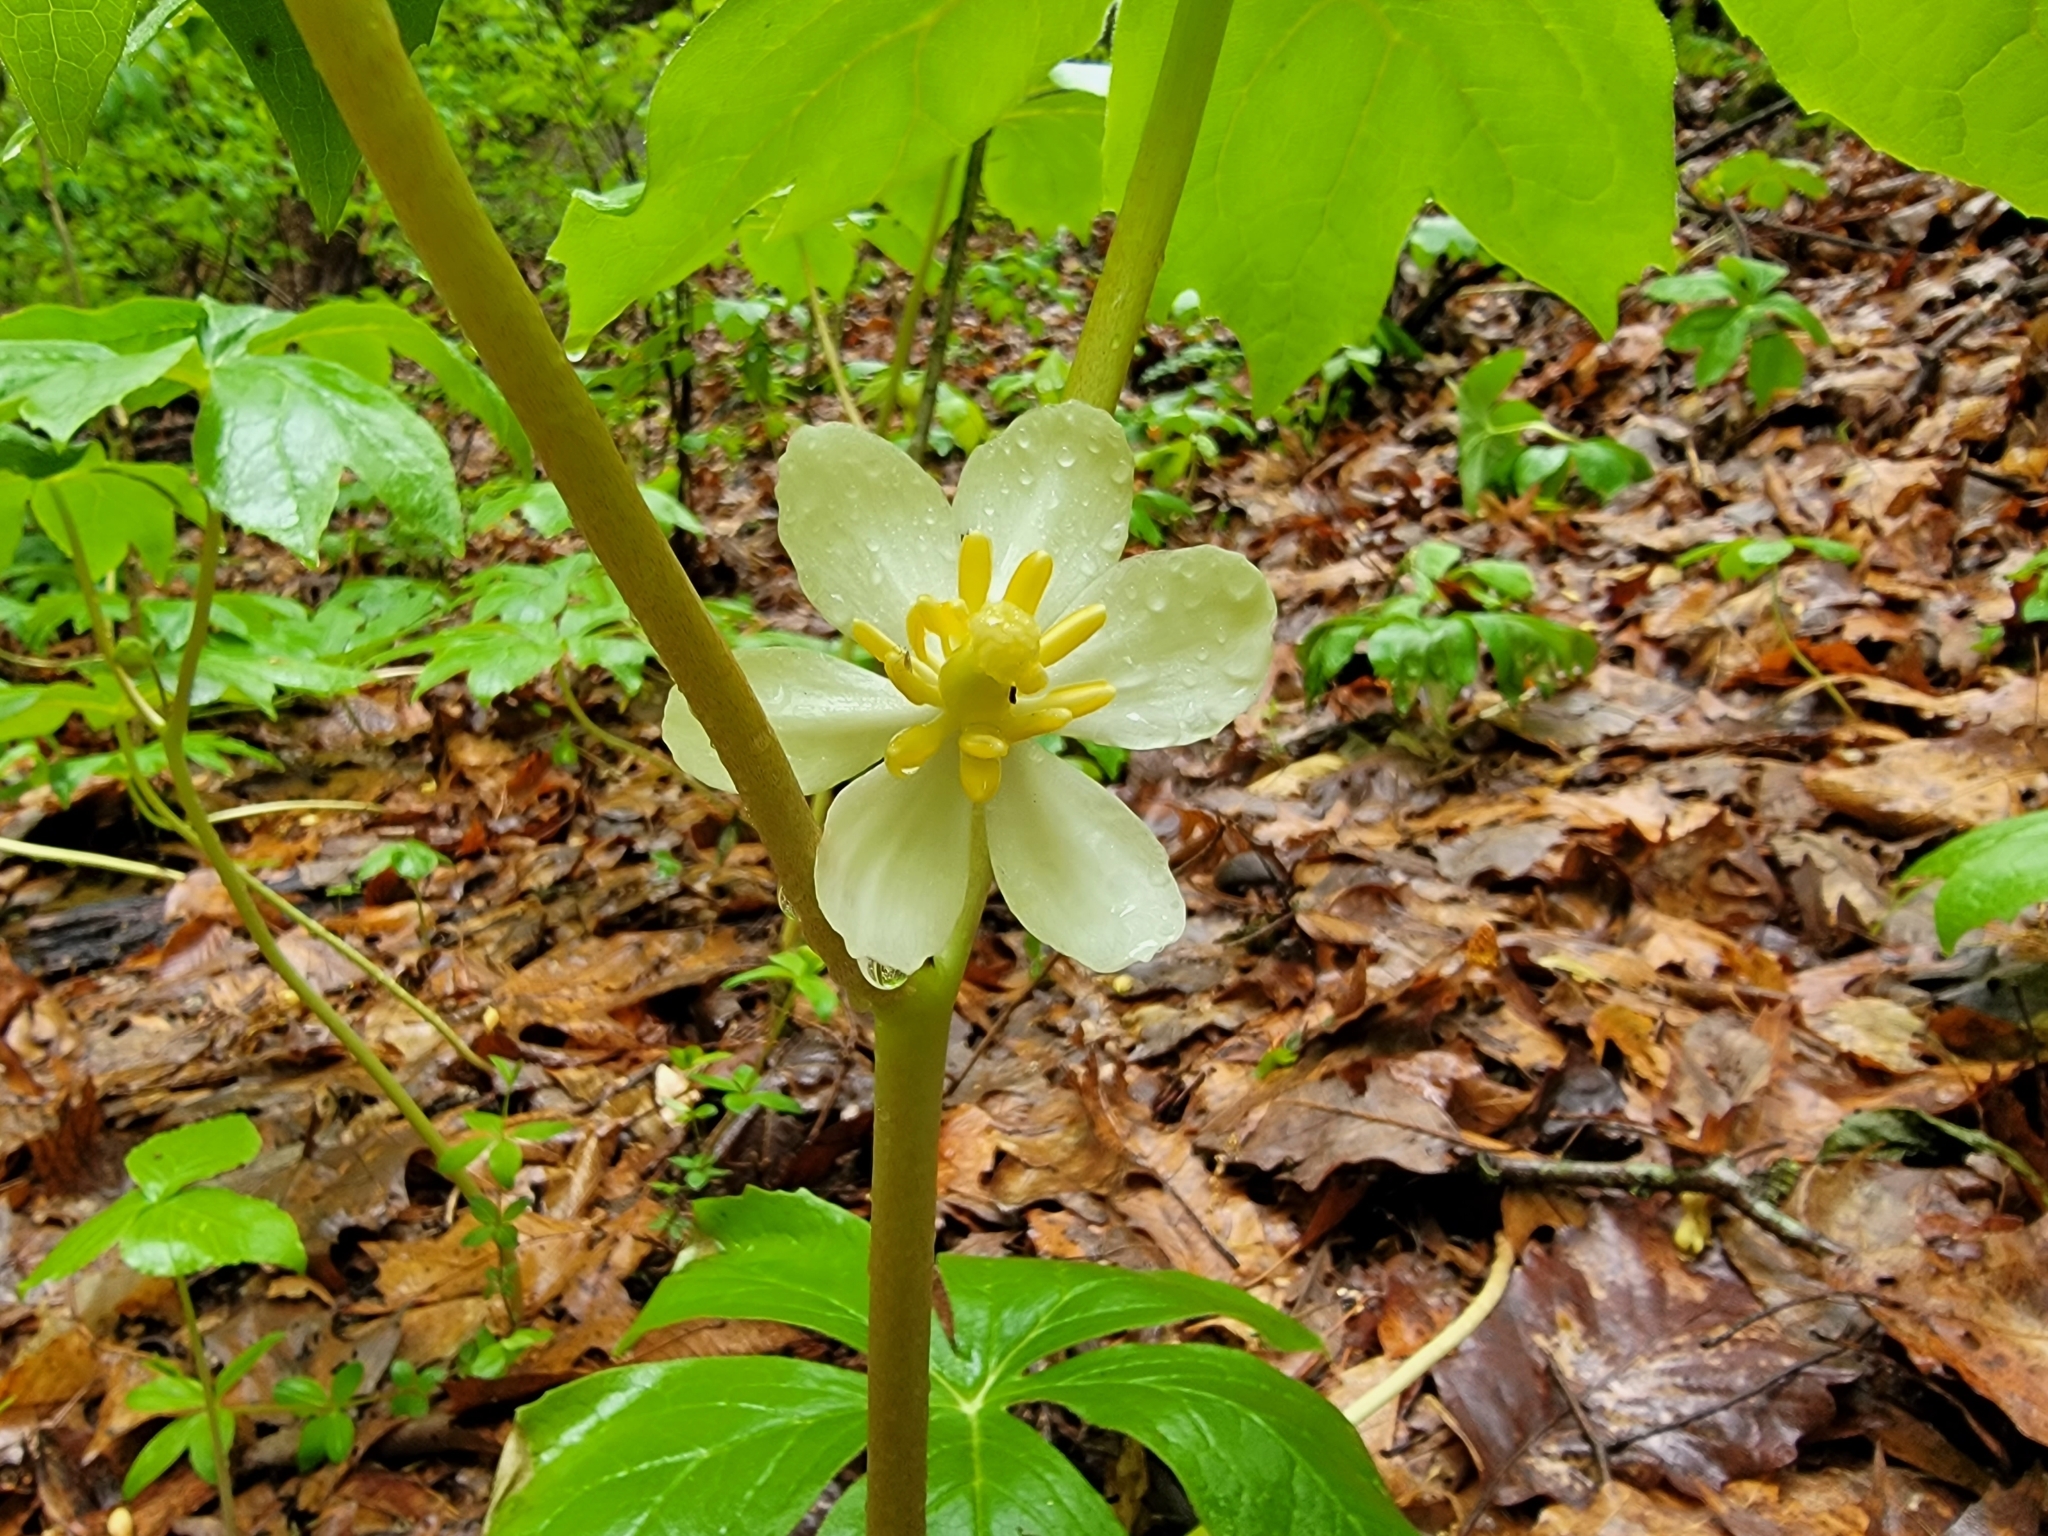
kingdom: Plantae
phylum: Tracheophyta
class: Magnoliopsida
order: Ranunculales
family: Berberidaceae
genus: Podophyllum
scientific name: Podophyllum peltatum
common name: Wild mandrake
